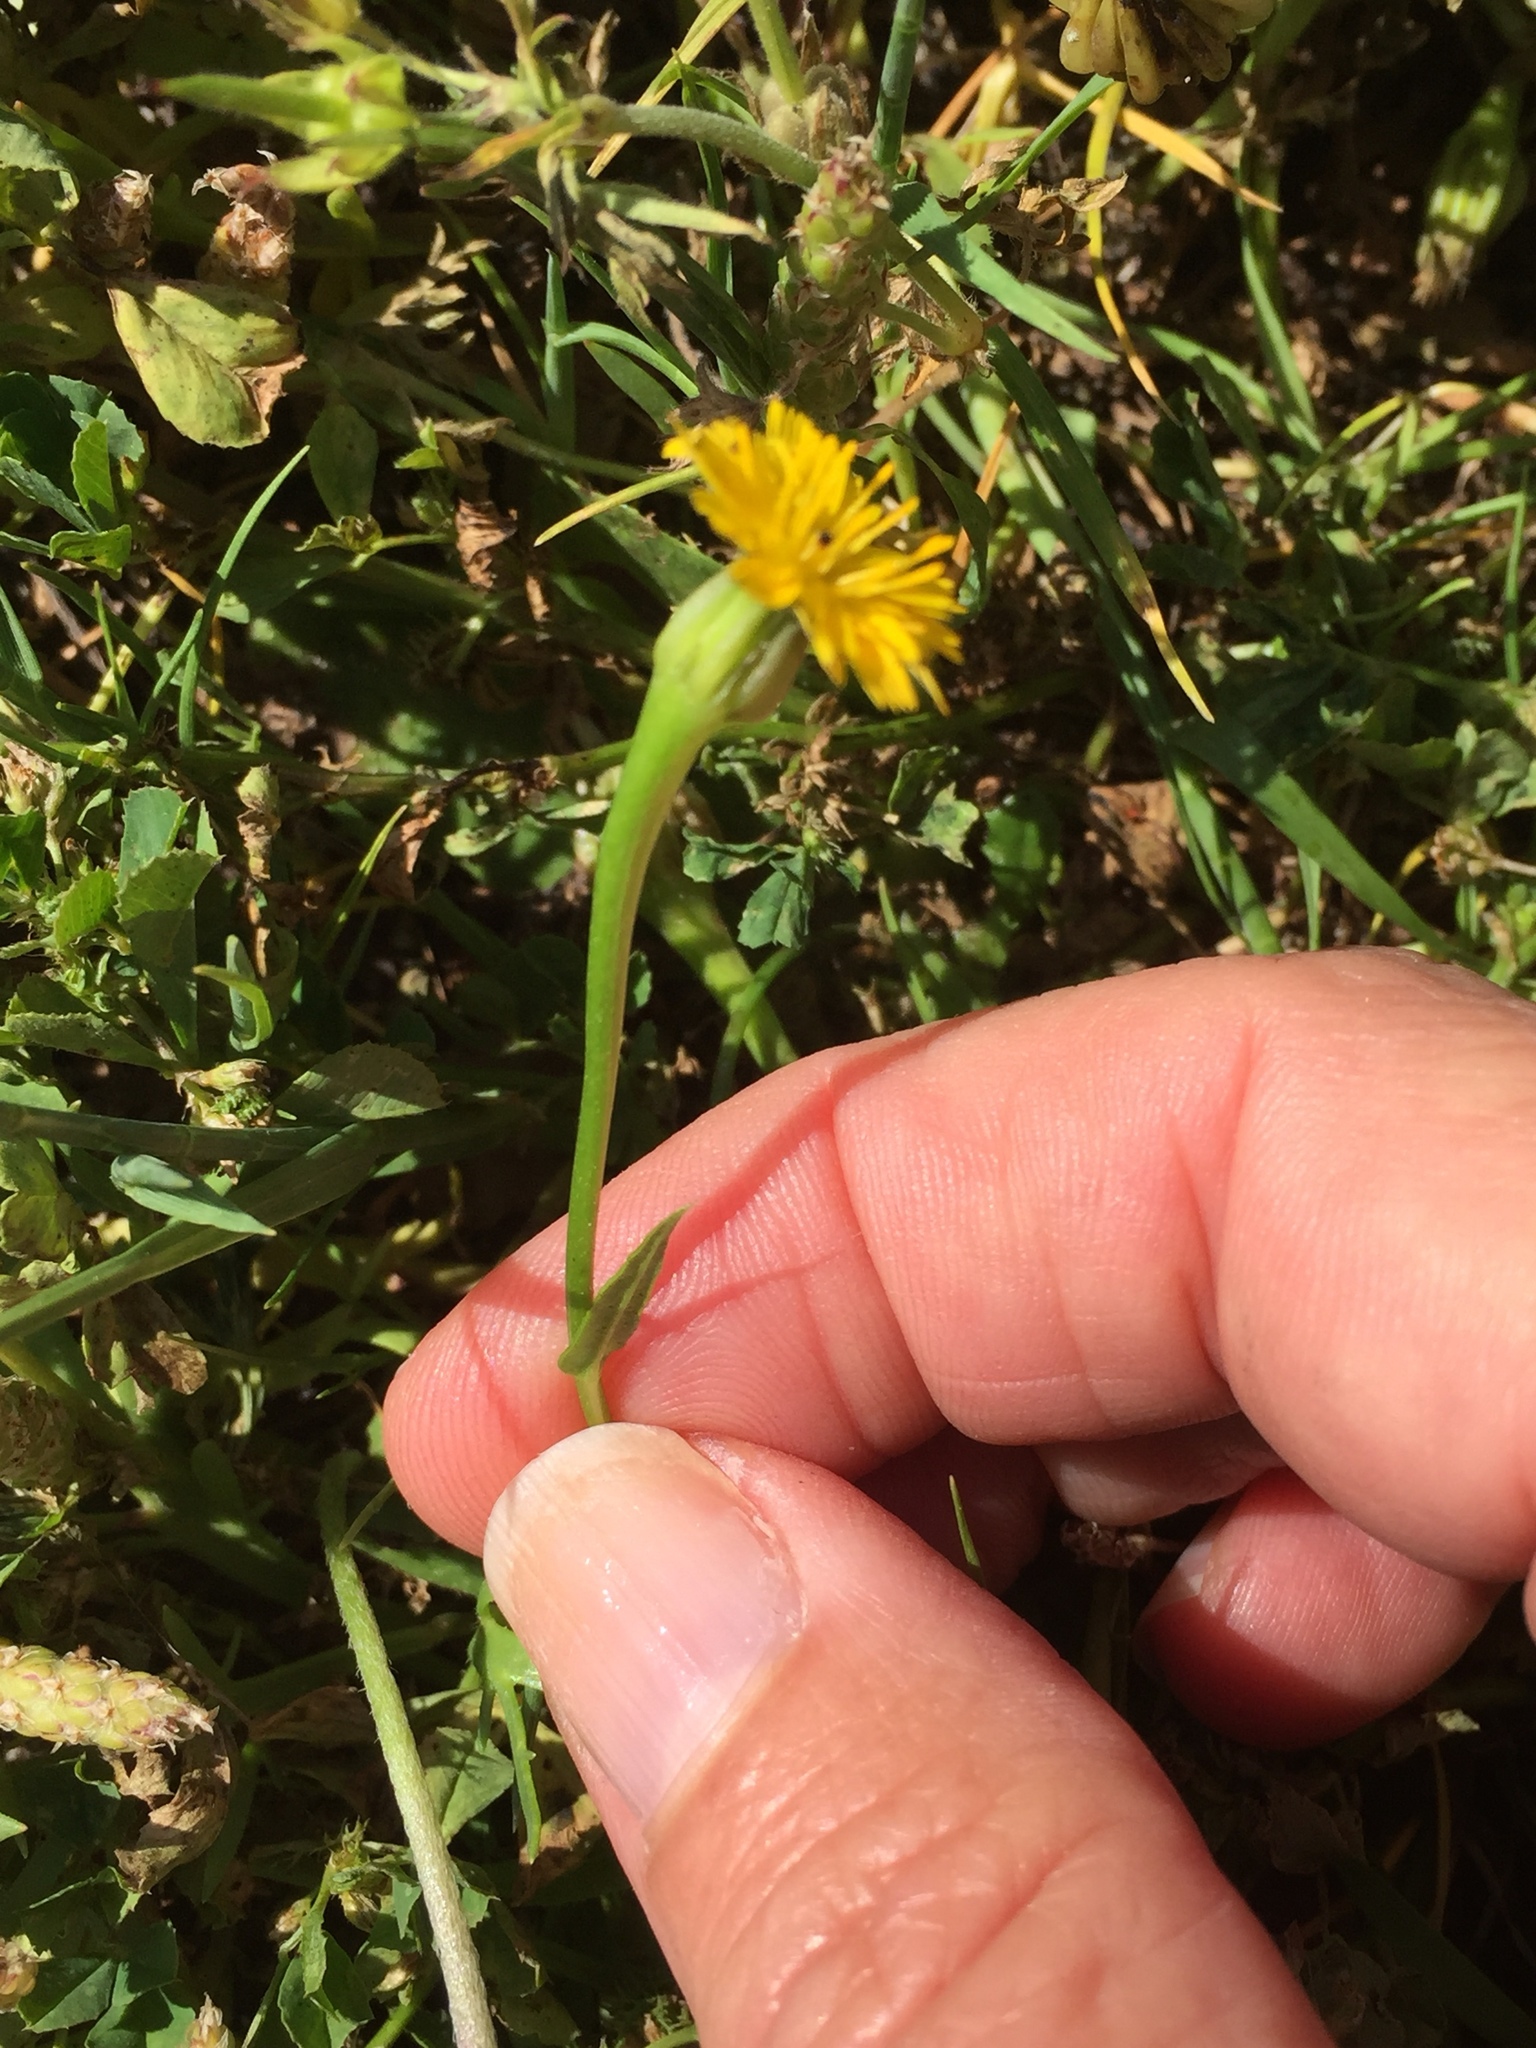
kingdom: Plantae
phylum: Tracheophyta
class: Magnoliopsida
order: Asterales
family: Asteraceae
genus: Hedypnois
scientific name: Hedypnois rhagadioloides
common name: Cretan weed
